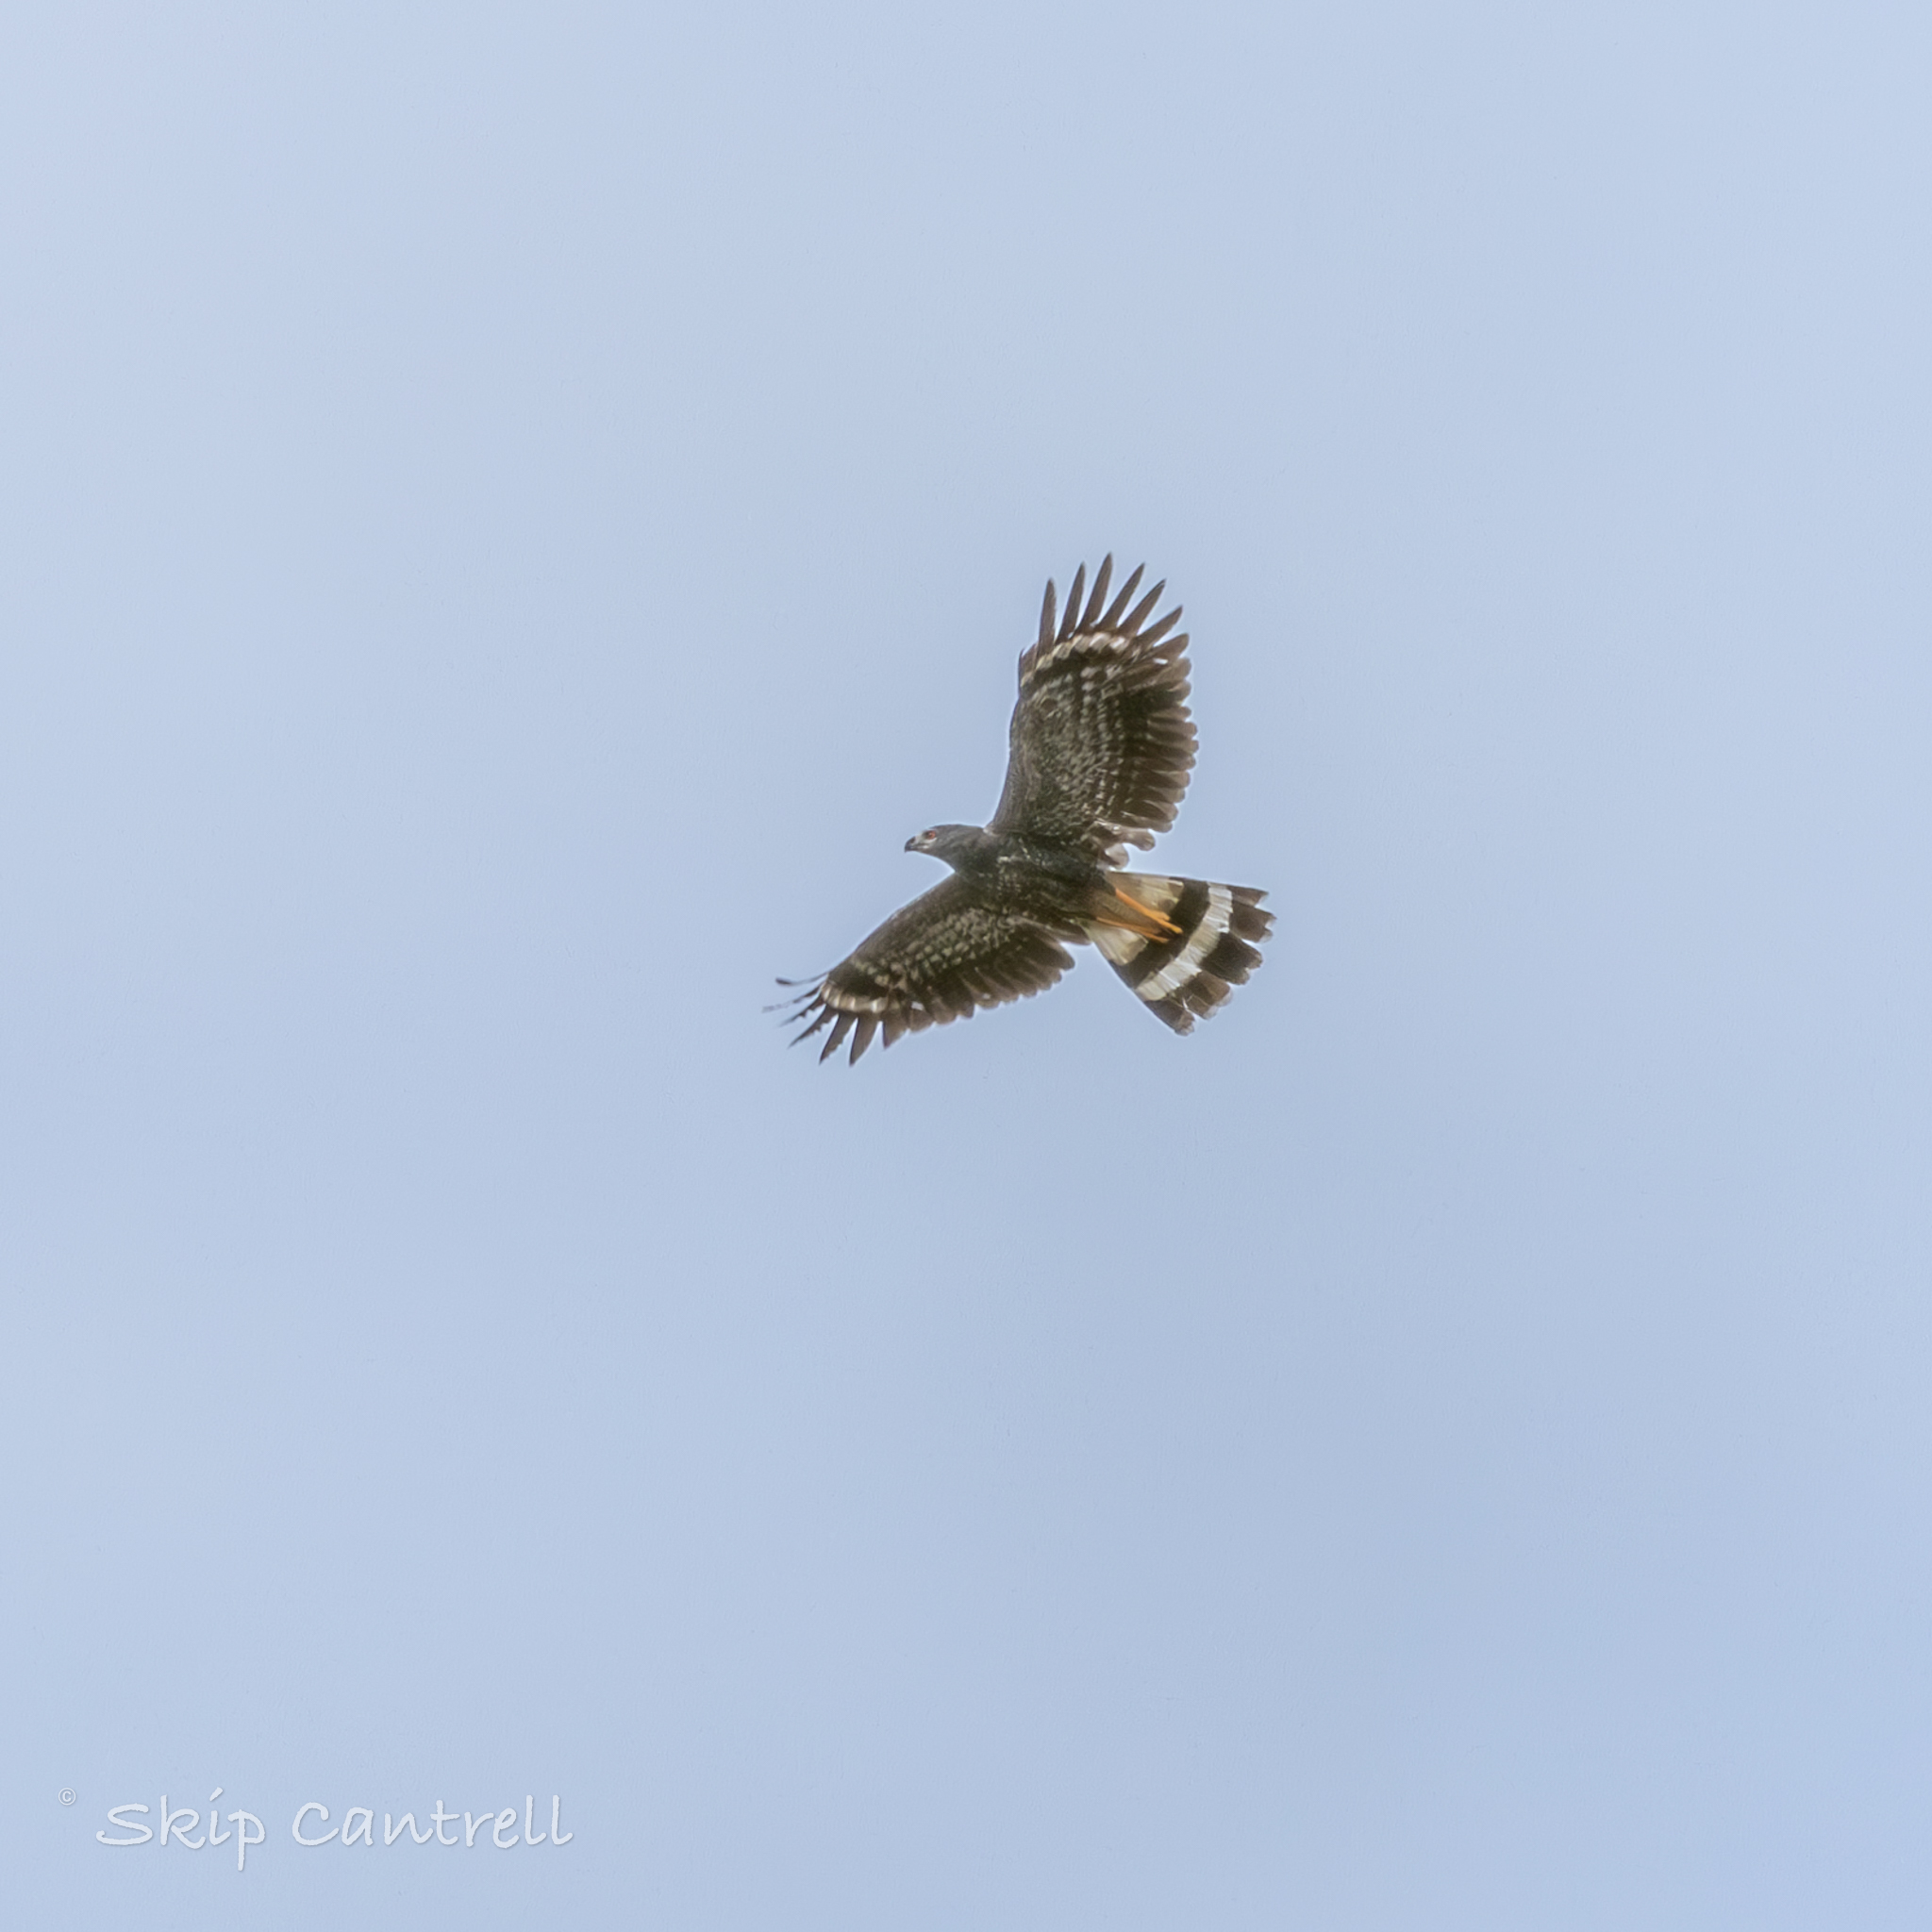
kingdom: Animalia
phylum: Chordata
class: Aves
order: Accipitriformes
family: Accipitridae
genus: Geranospiza
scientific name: Geranospiza caerulescens
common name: Crane hawk
